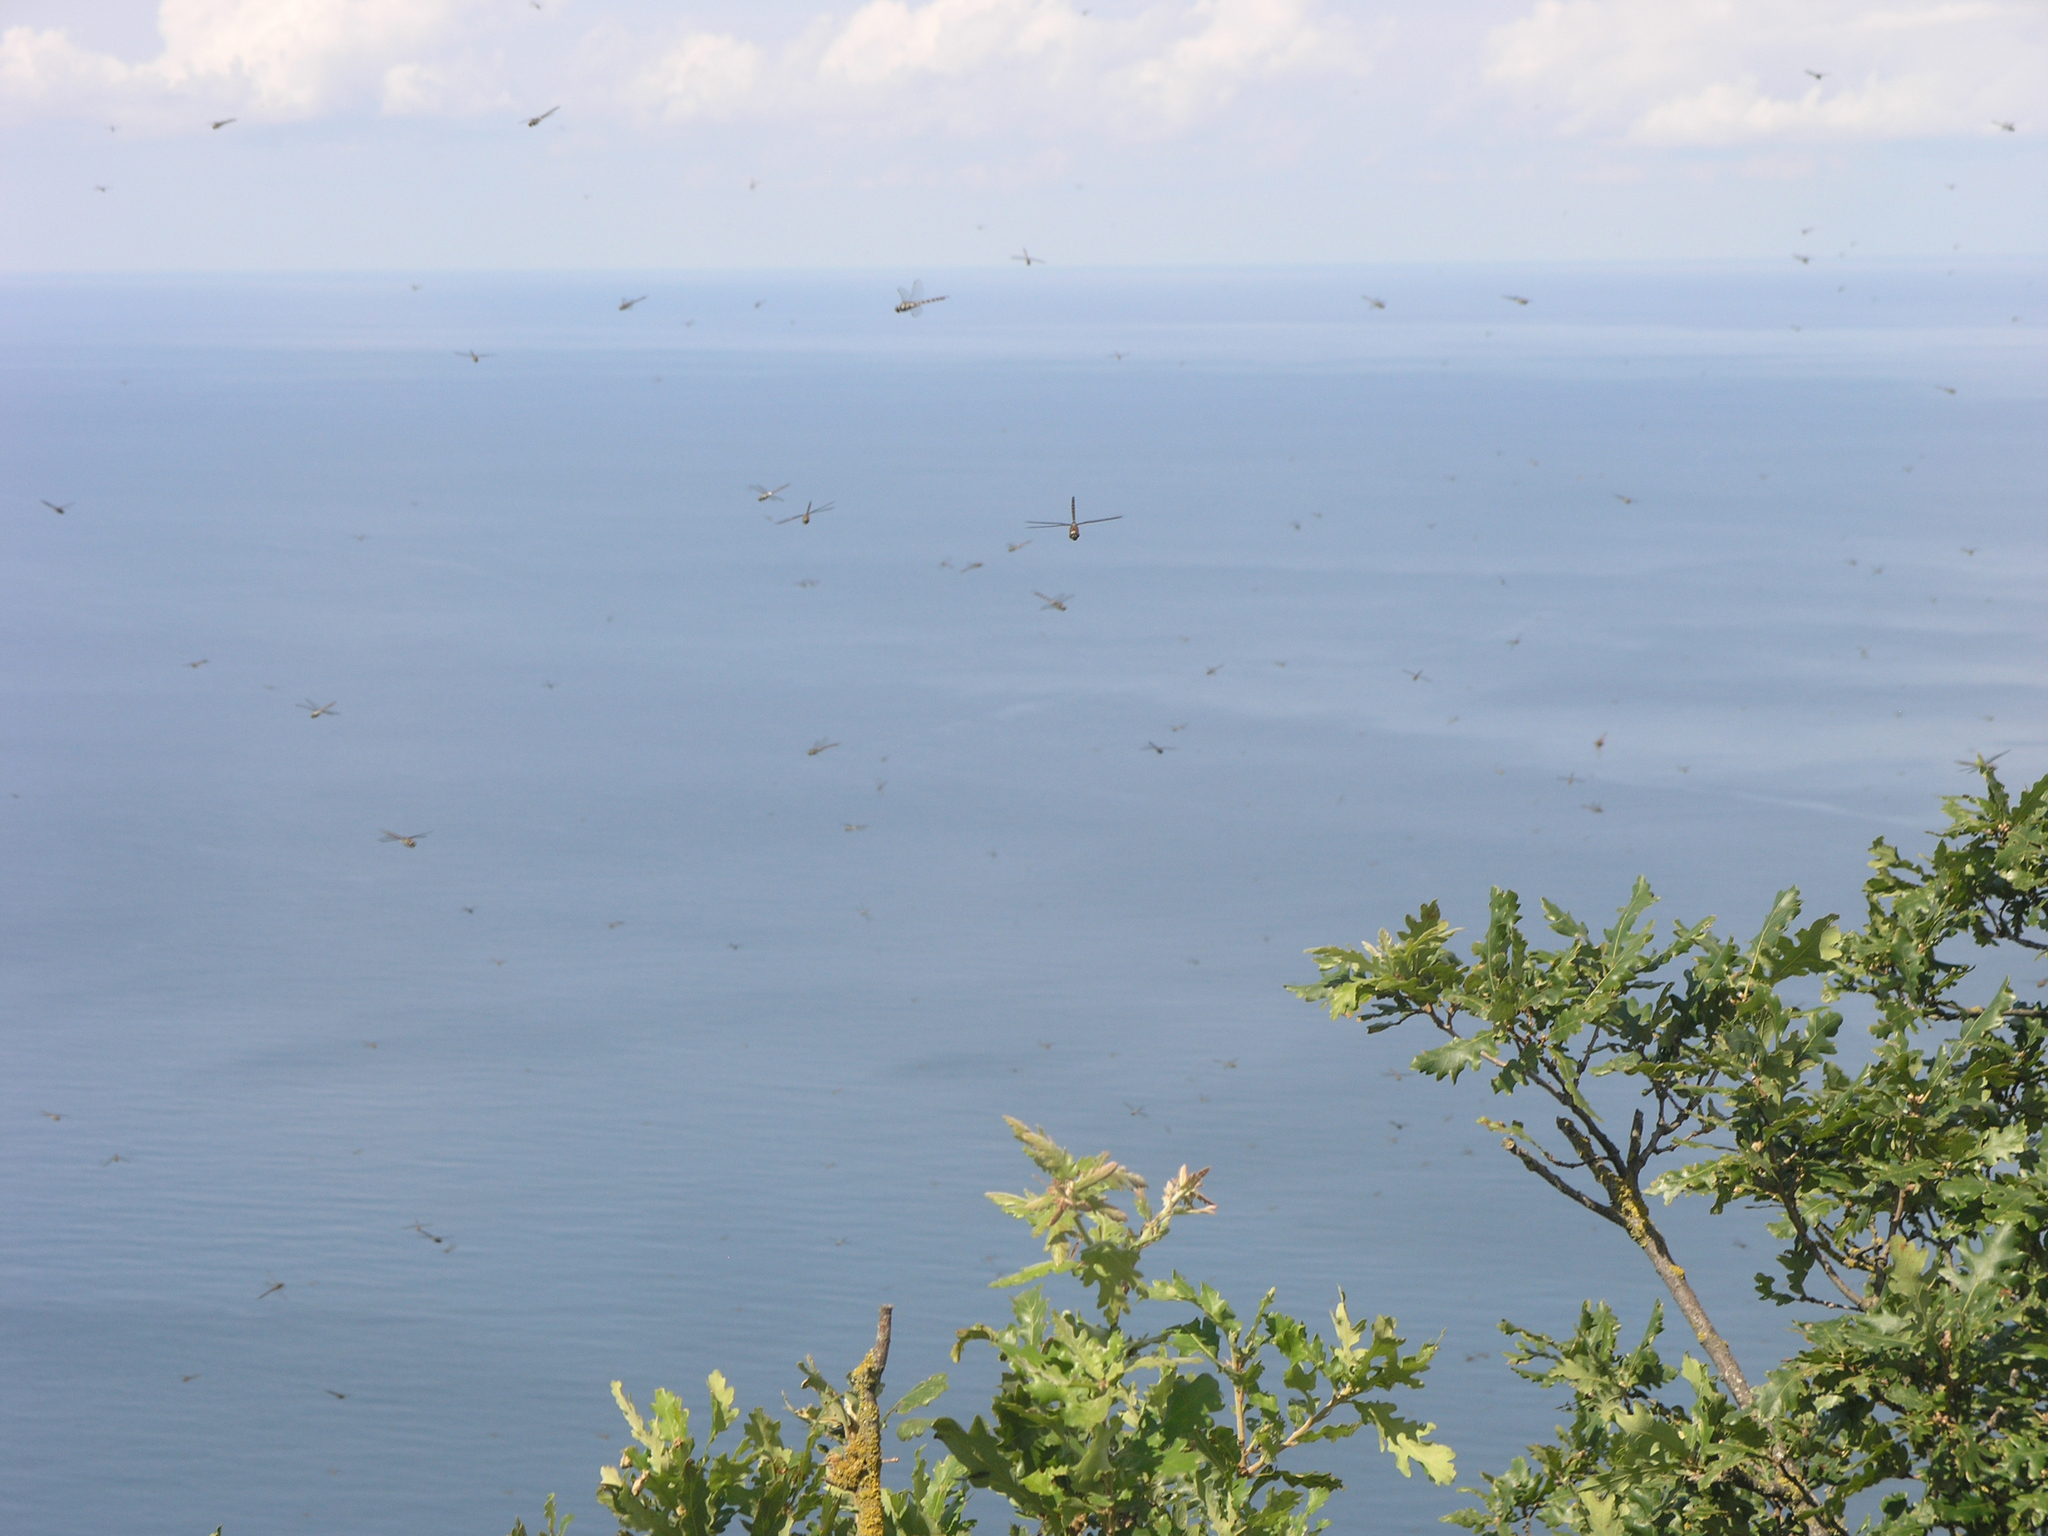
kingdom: Plantae
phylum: Tracheophyta
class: Magnoliopsida
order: Fagales
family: Fagaceae
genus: Quercus
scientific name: Quercus pubescens
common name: Downy oak
